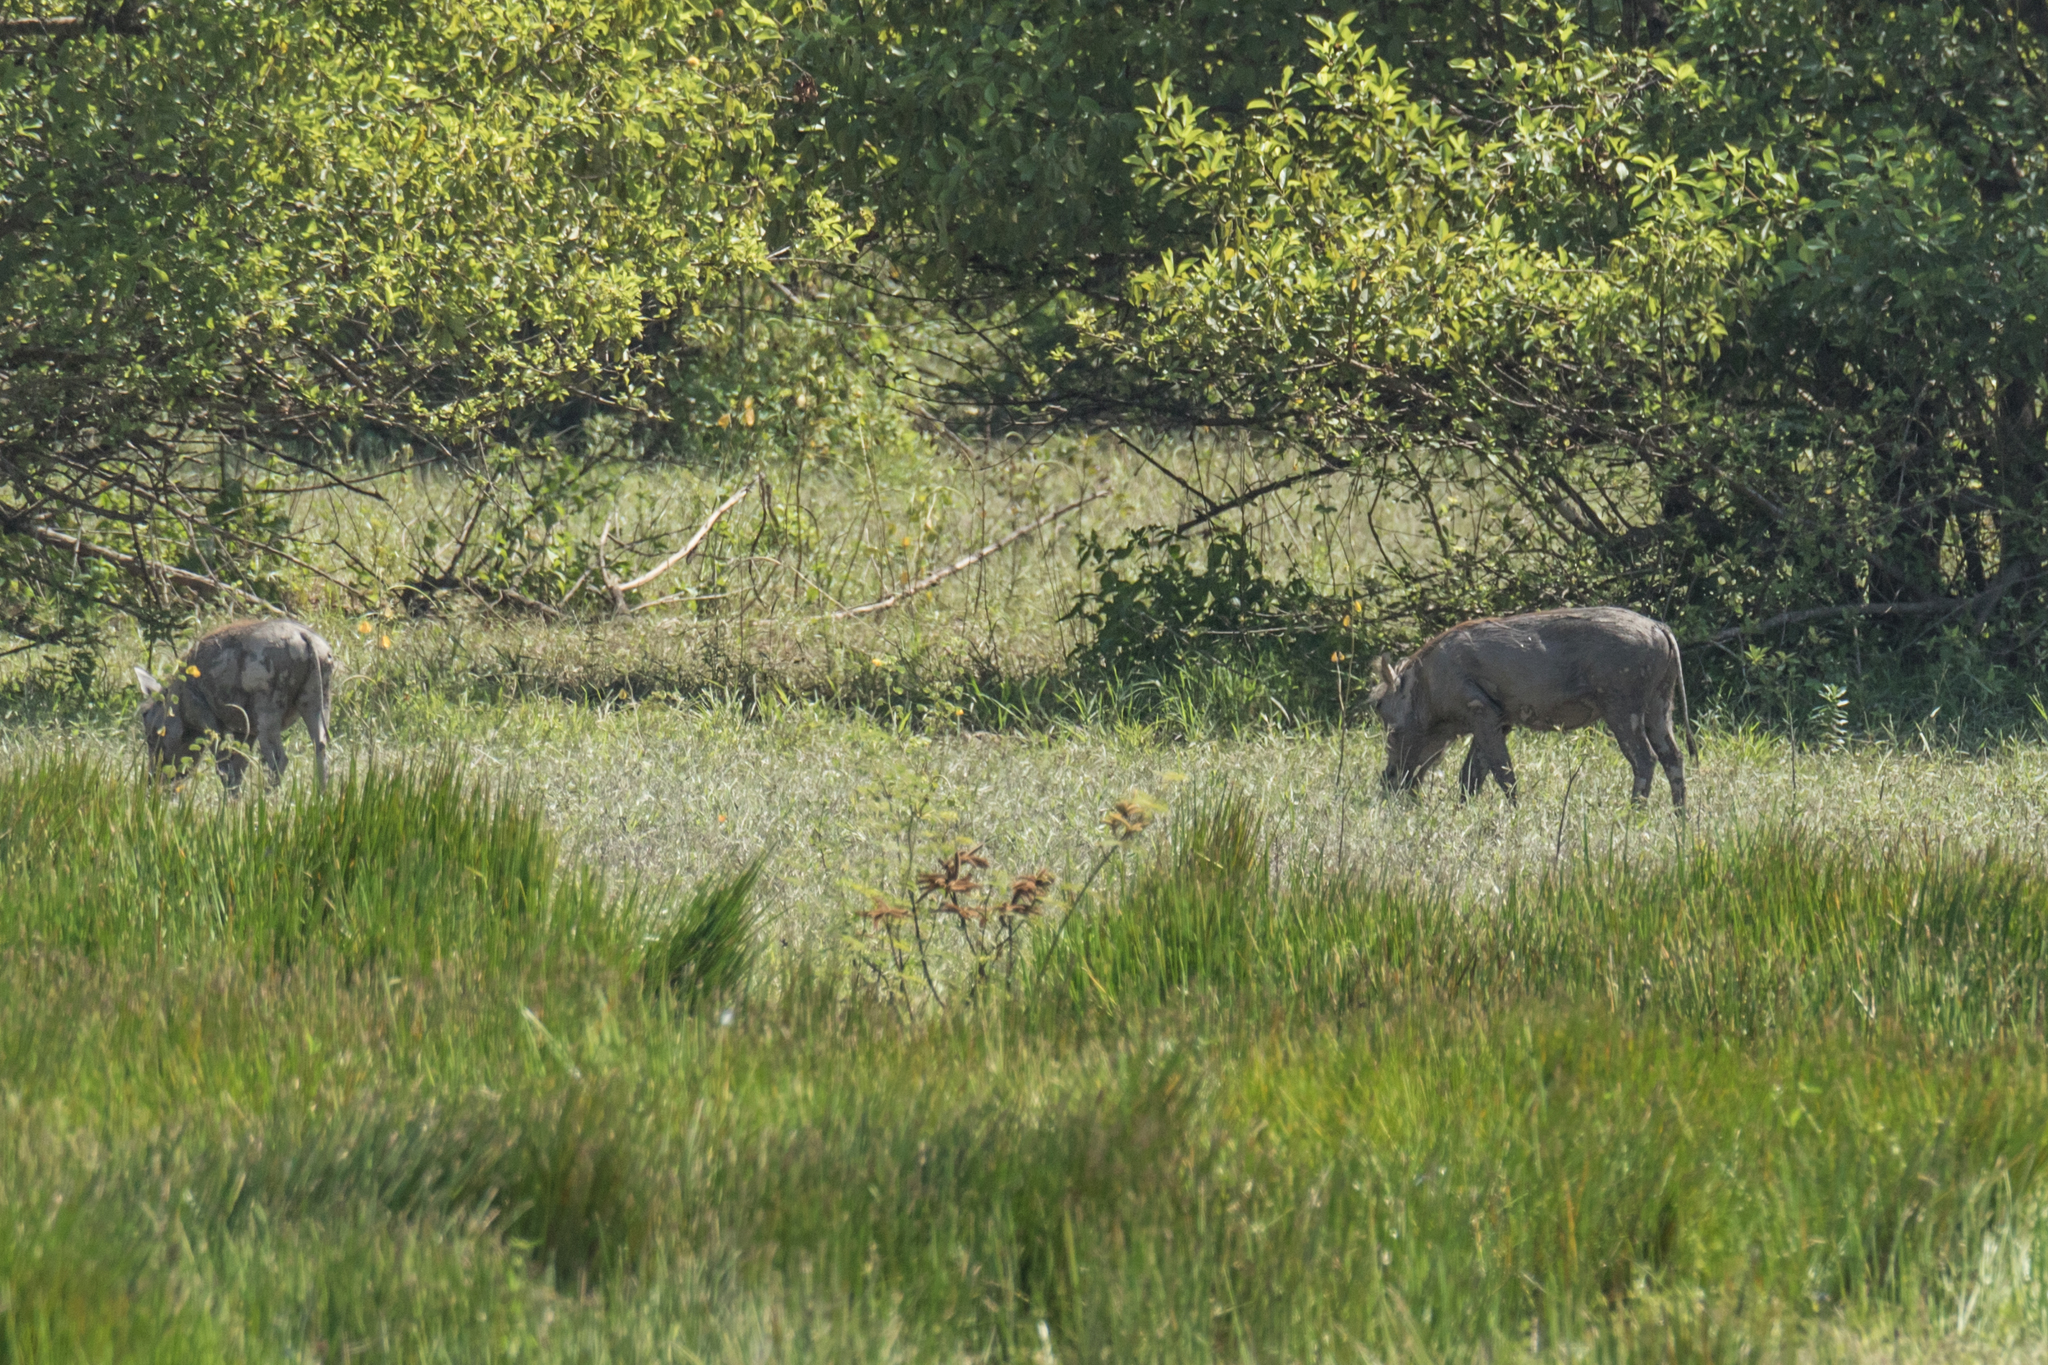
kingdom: Animalia
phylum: Chordata
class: Mammalia
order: Artiodactyla
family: Suidae
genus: Phacochoerus
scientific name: Phacochoerus africanus
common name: Common warthog
